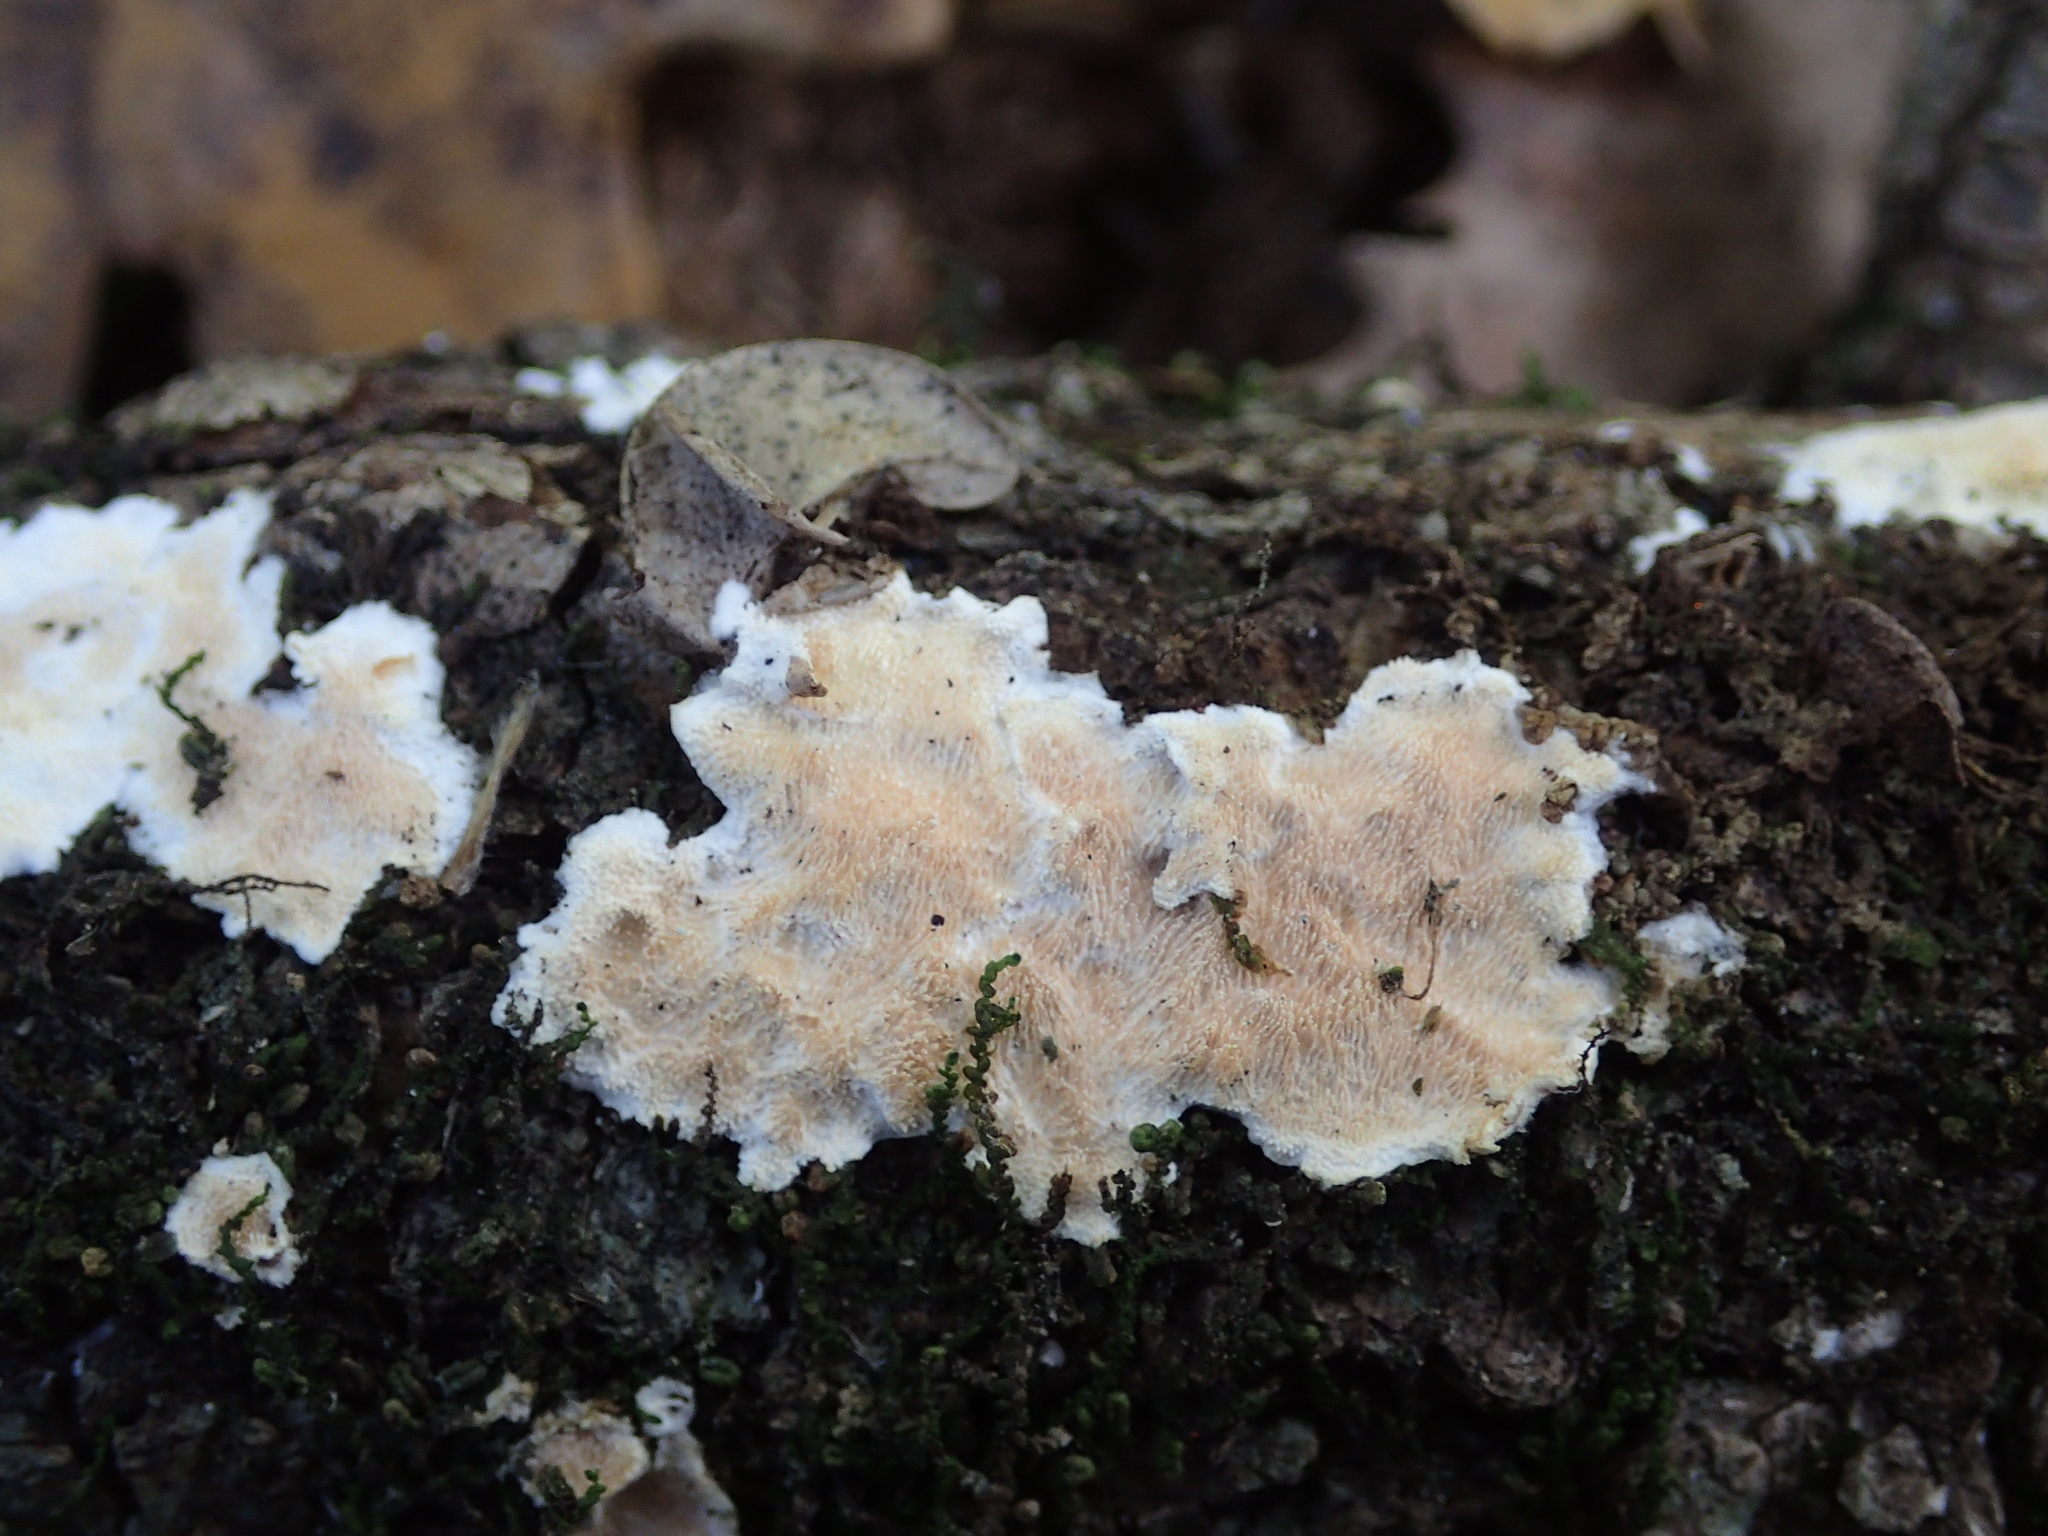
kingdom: Fungi
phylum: Basidiomycota
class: Agaricomycetes
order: Polyporales
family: Steccherinaceae
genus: Steccherinum
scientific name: Steccherinum ochraceum
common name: Ochre spreading tooth
